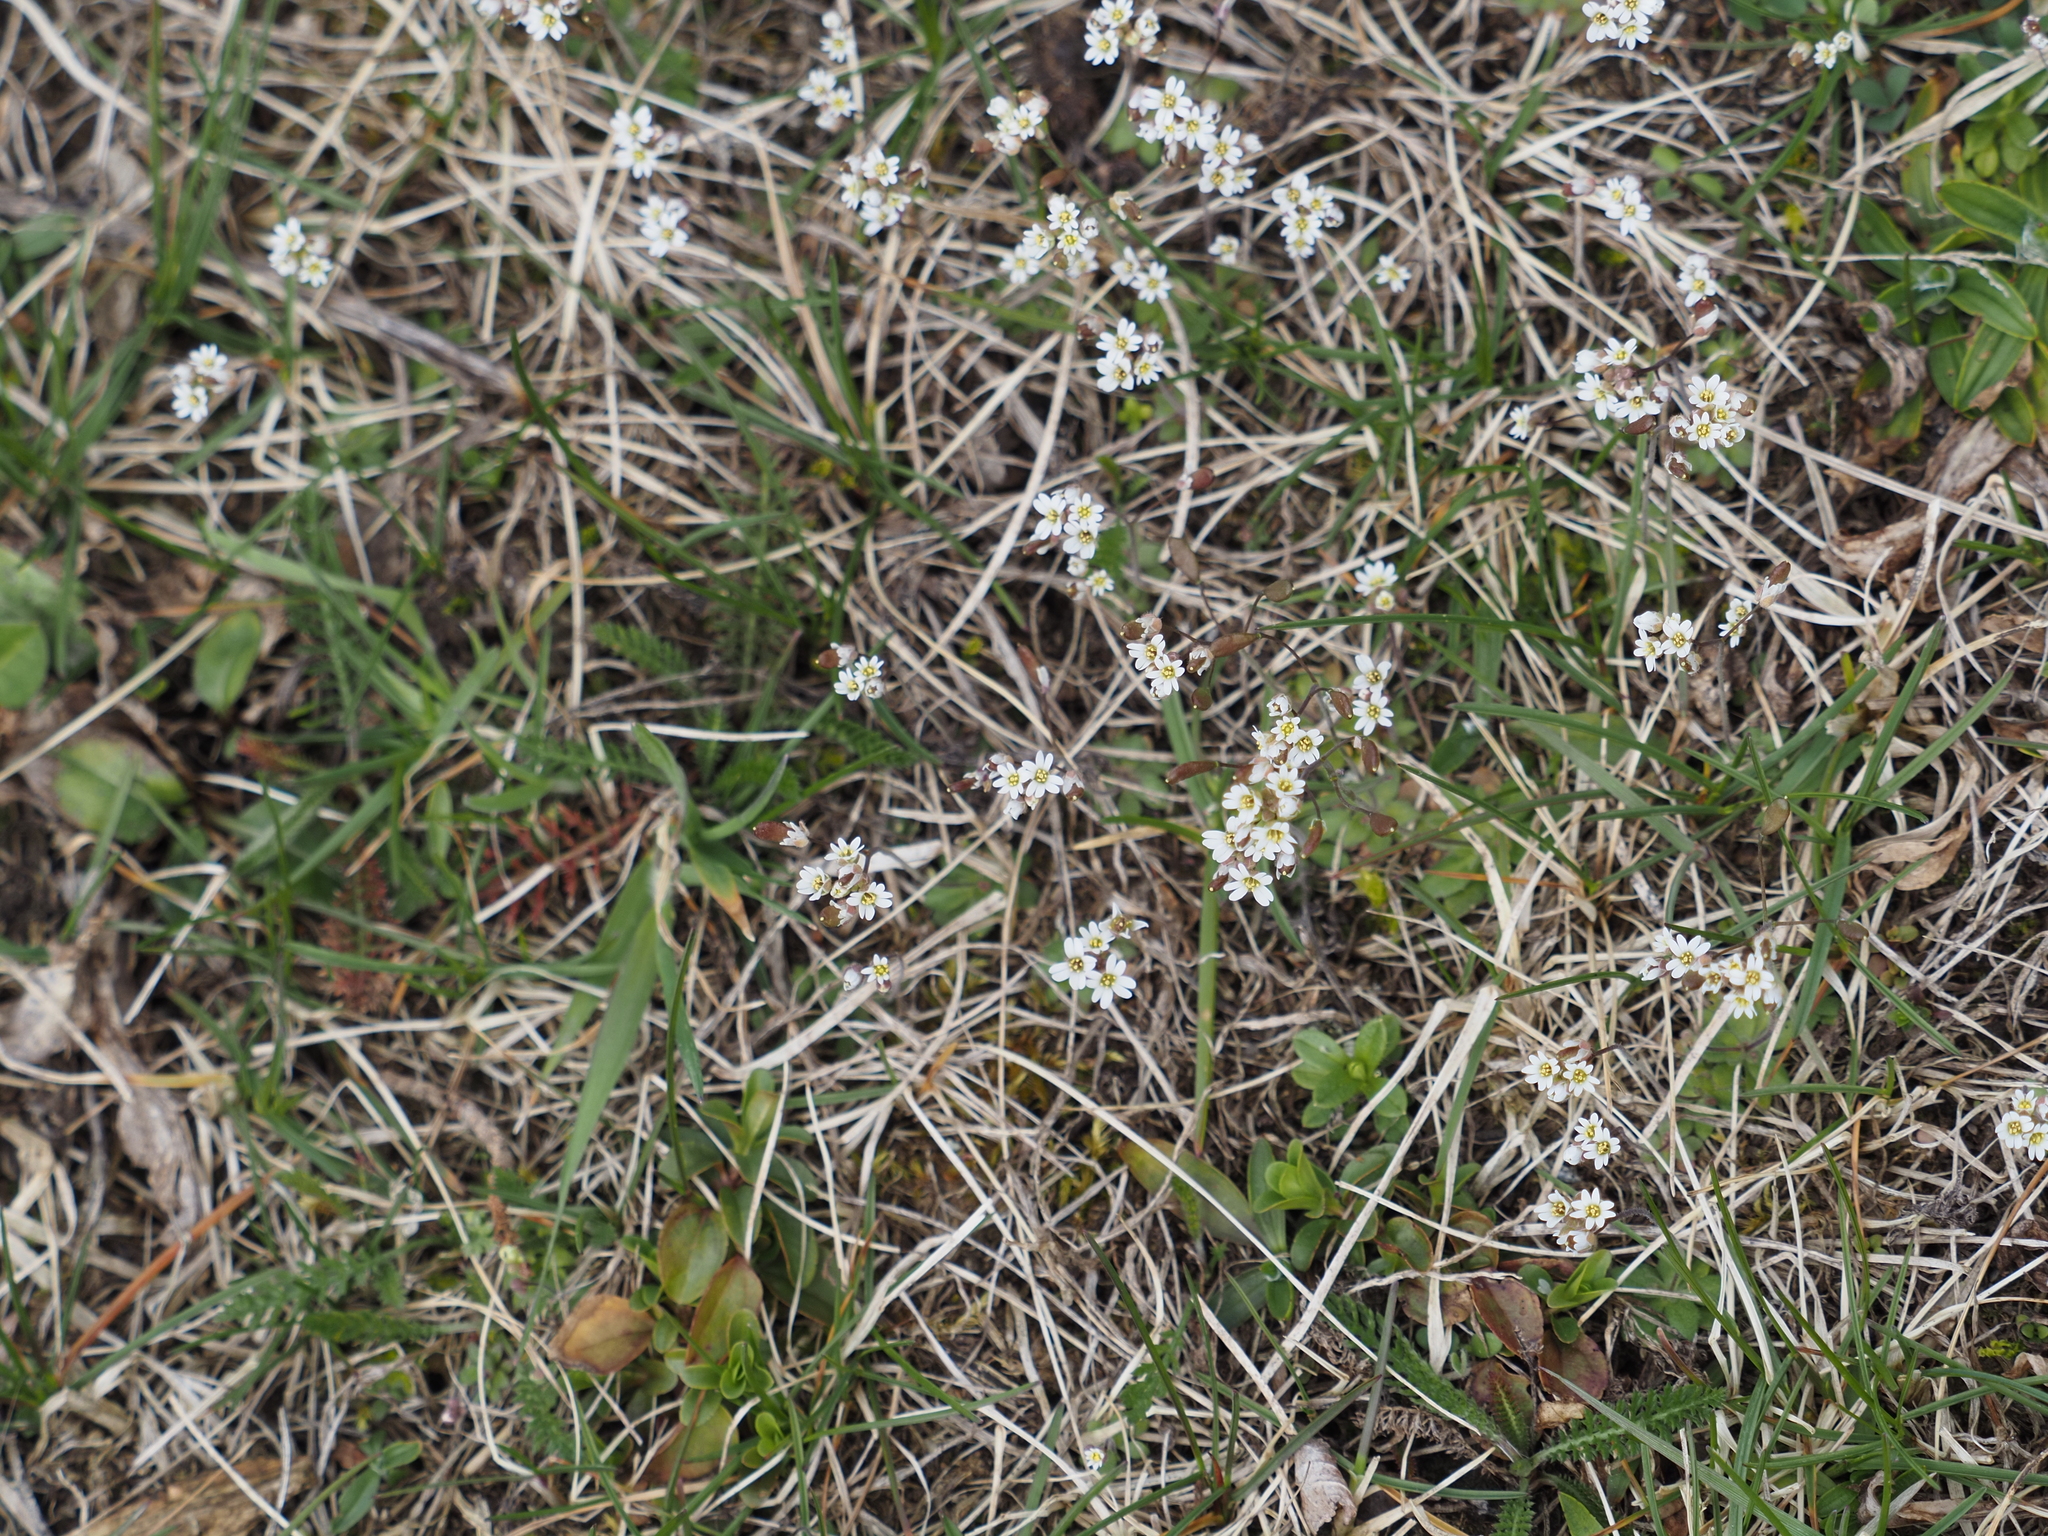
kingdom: Plantae
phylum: Tracheophyta
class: Magnoliopsida
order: Brassicales
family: Brassicaceae
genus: Draba
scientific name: Draba verna
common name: Spring draba
